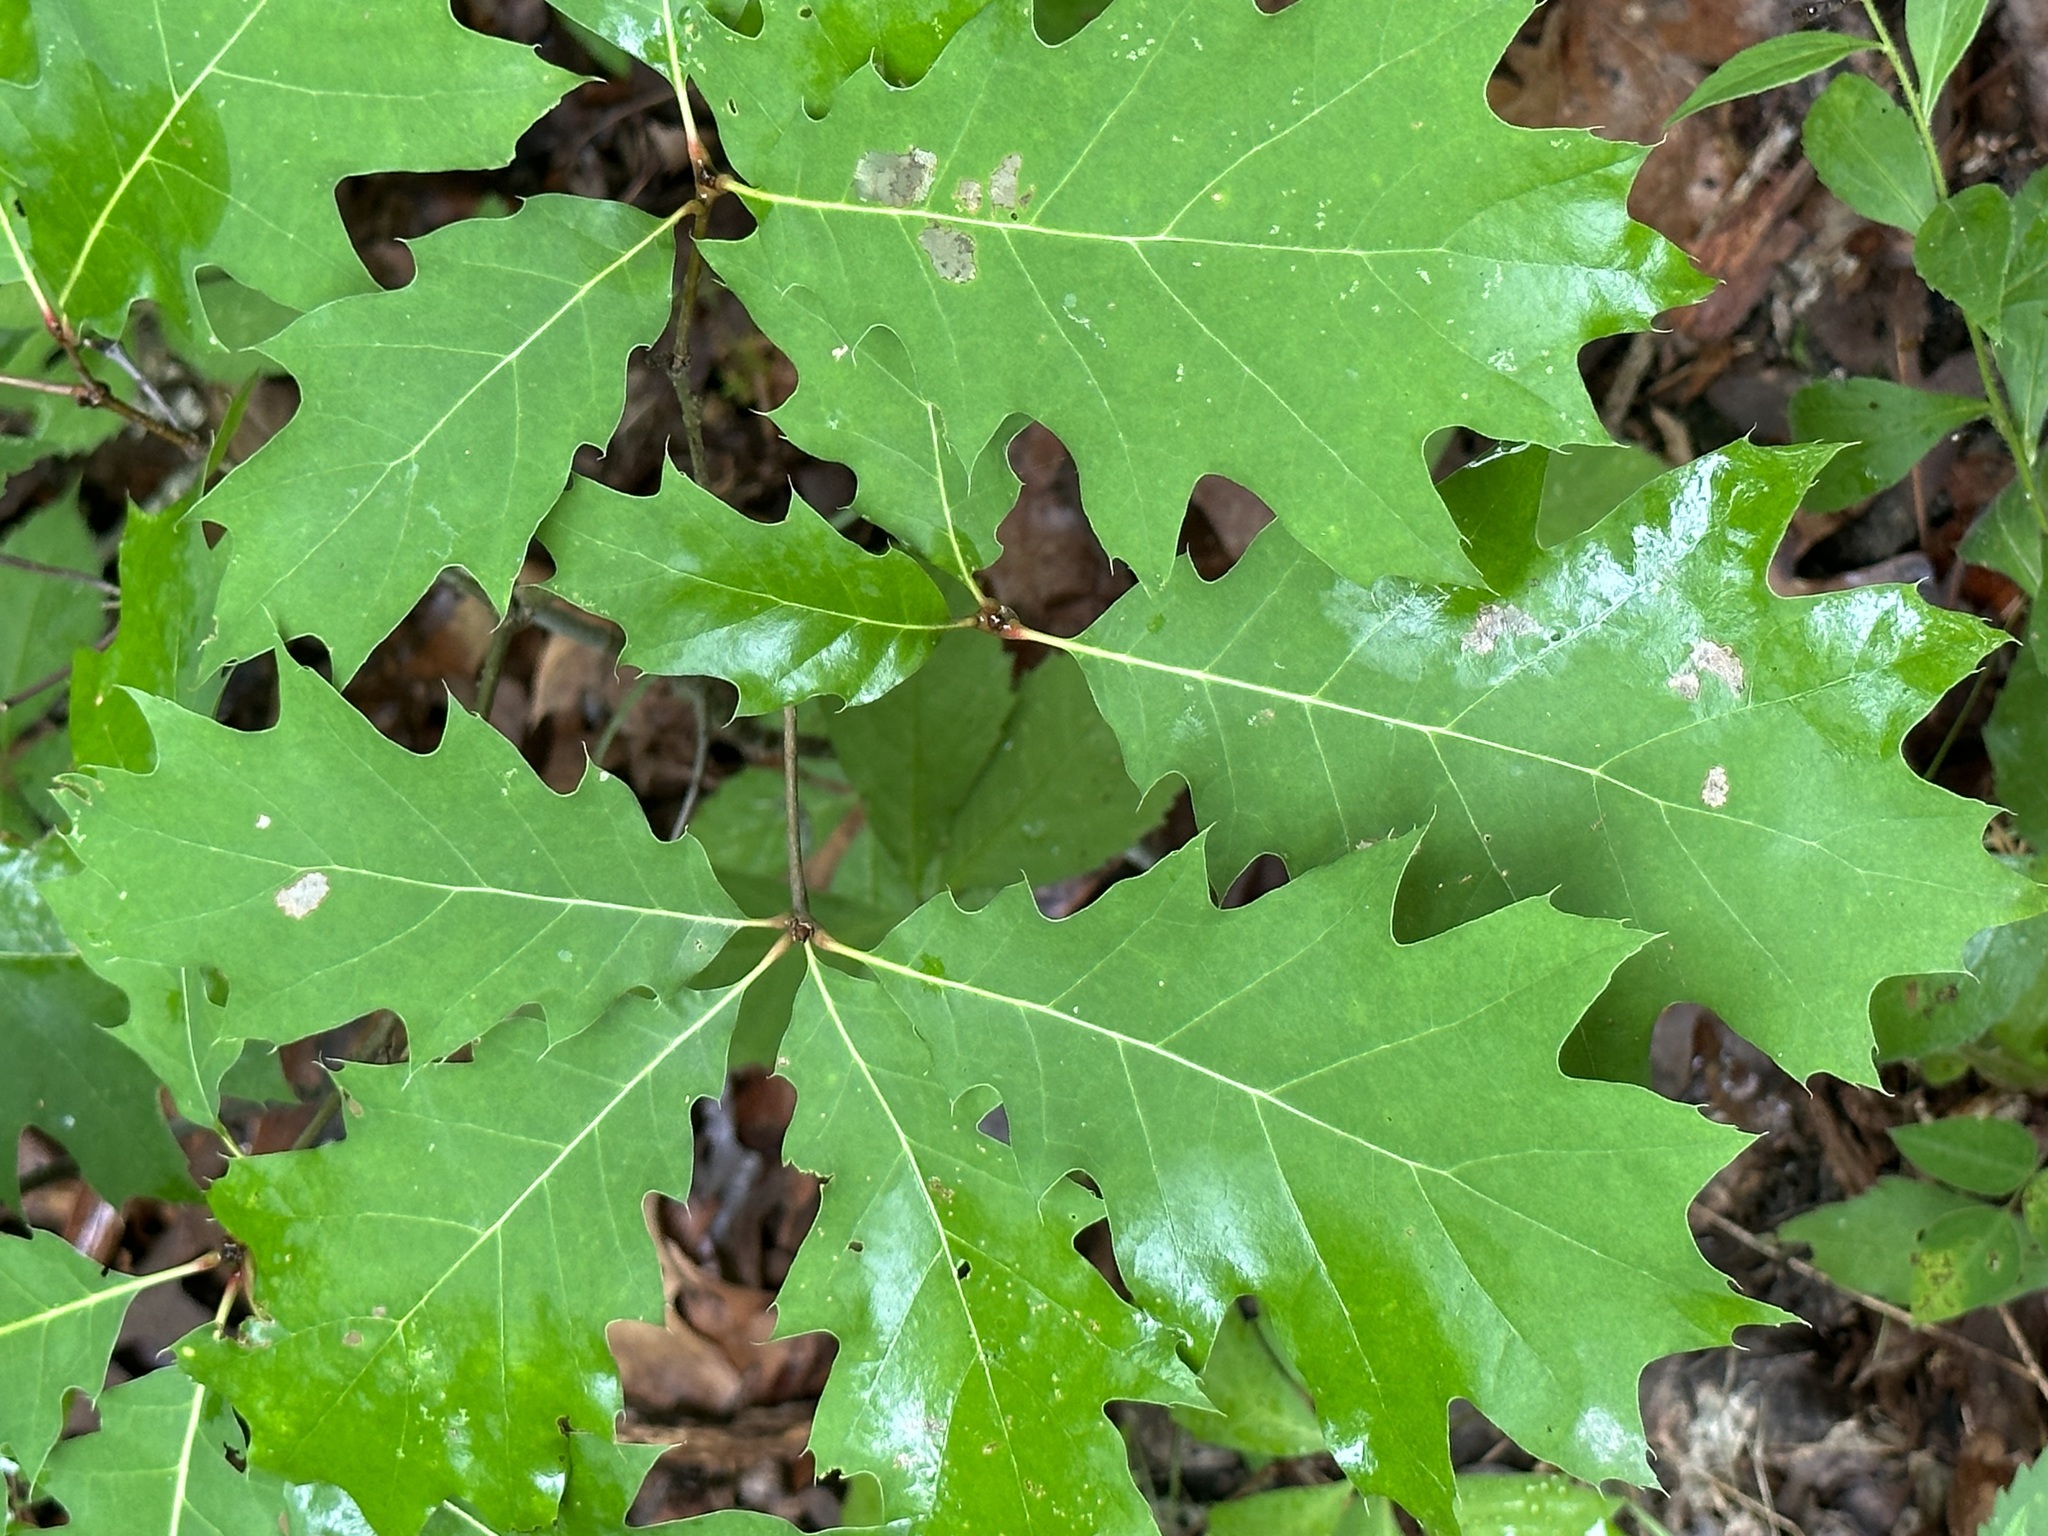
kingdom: Plantae
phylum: Tracheophyta
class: Magnoliopsida
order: Fagales
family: Fagaceae
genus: Quercus
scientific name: Quercus rubra
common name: Red oak
